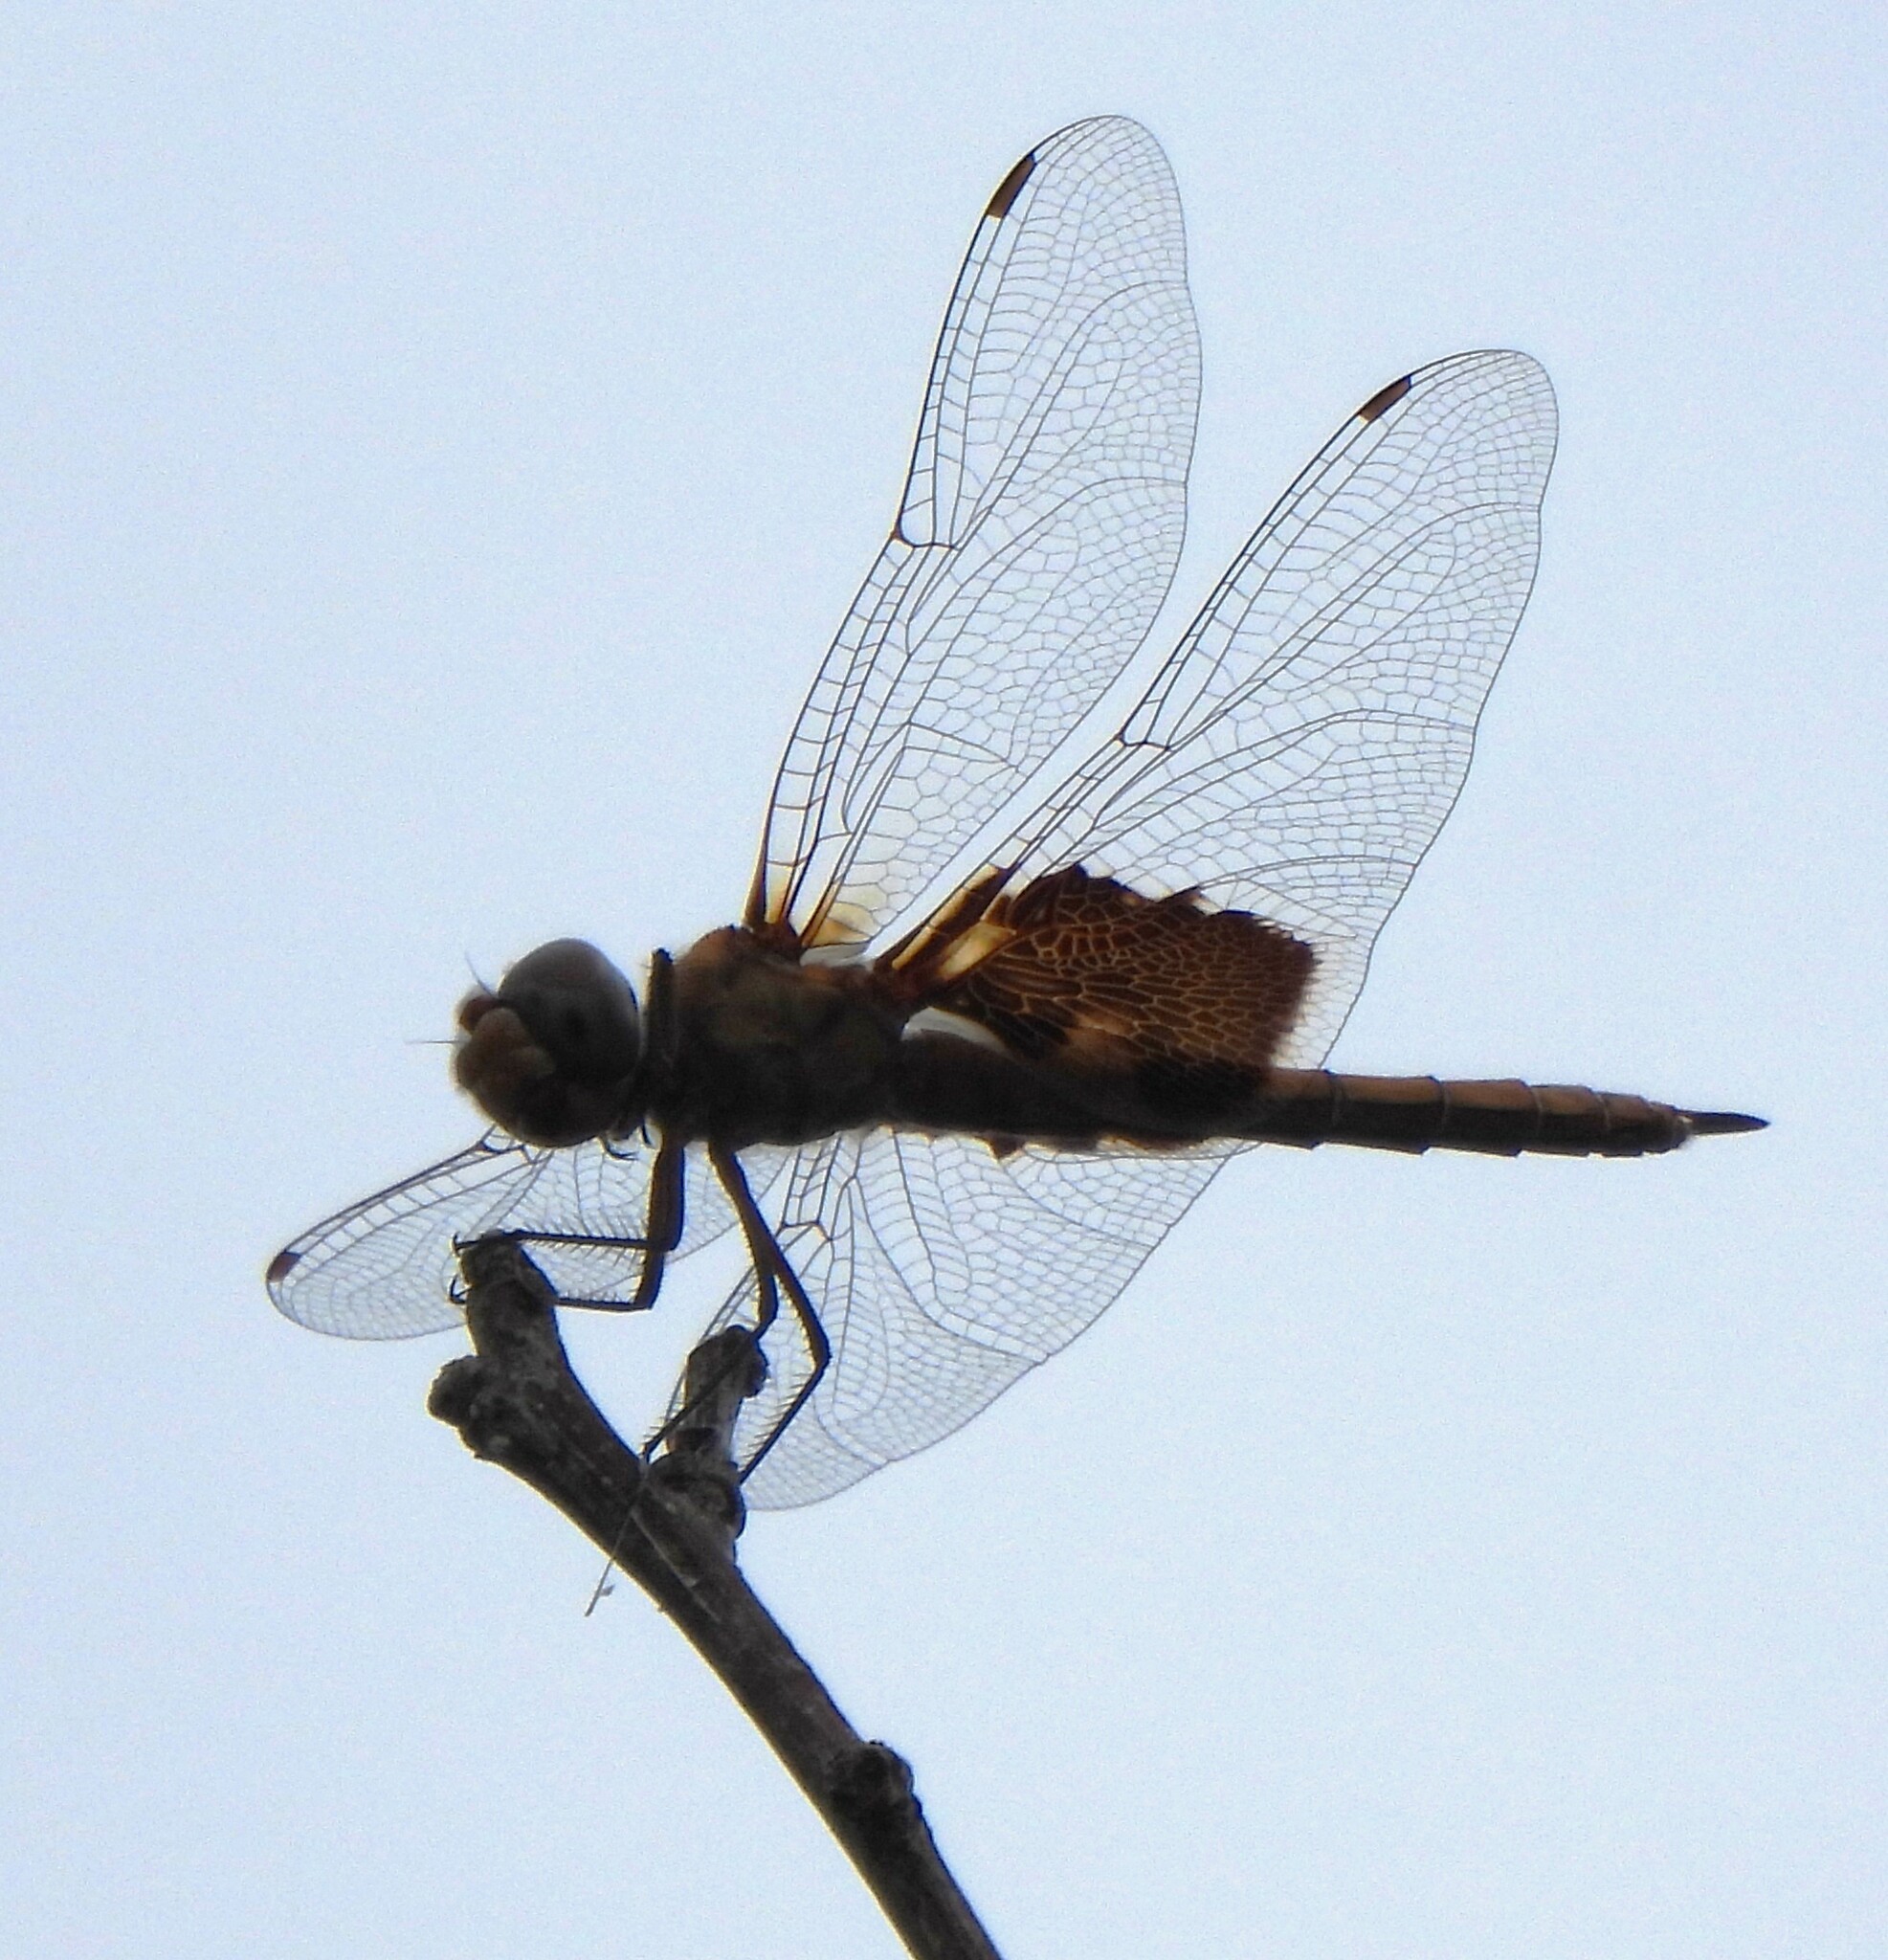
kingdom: Animalia
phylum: Arthropoda
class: Insecta
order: Odonata
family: Libellulidae
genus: Tramea
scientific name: Tramea onusta
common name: Red saddlebags
